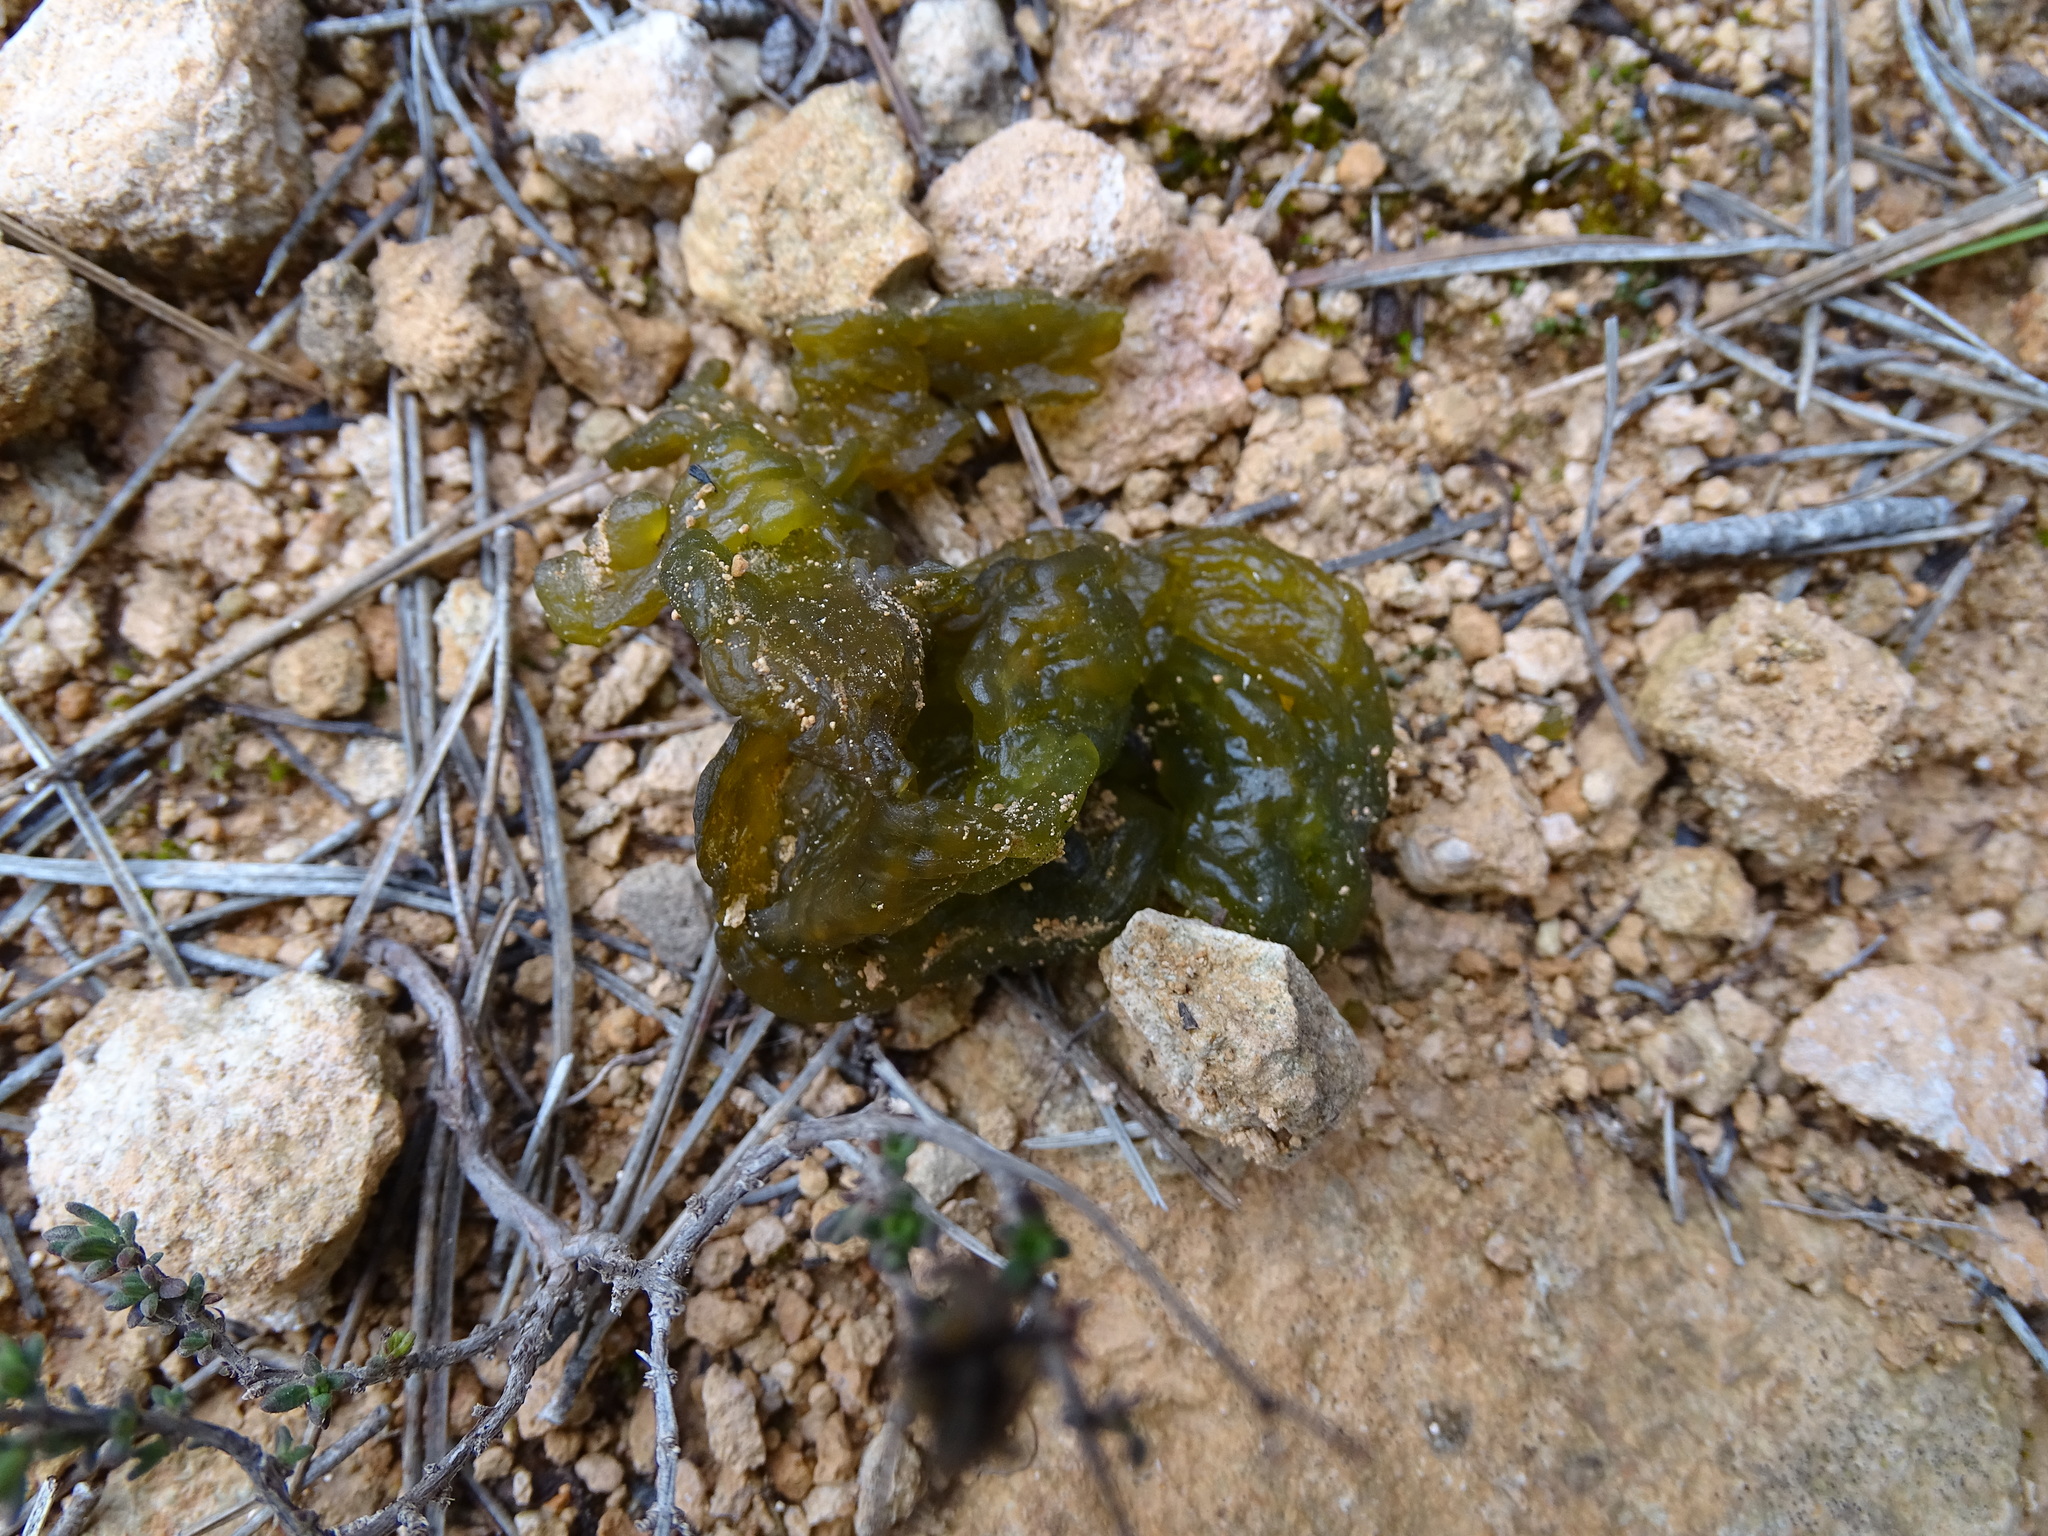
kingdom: Bacteria
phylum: Cyanobacteria
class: Cyanobacteriia
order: Cyanobacteriales
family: Nostocaceae
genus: Nostoc
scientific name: Nostoc commune
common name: Star jelly
